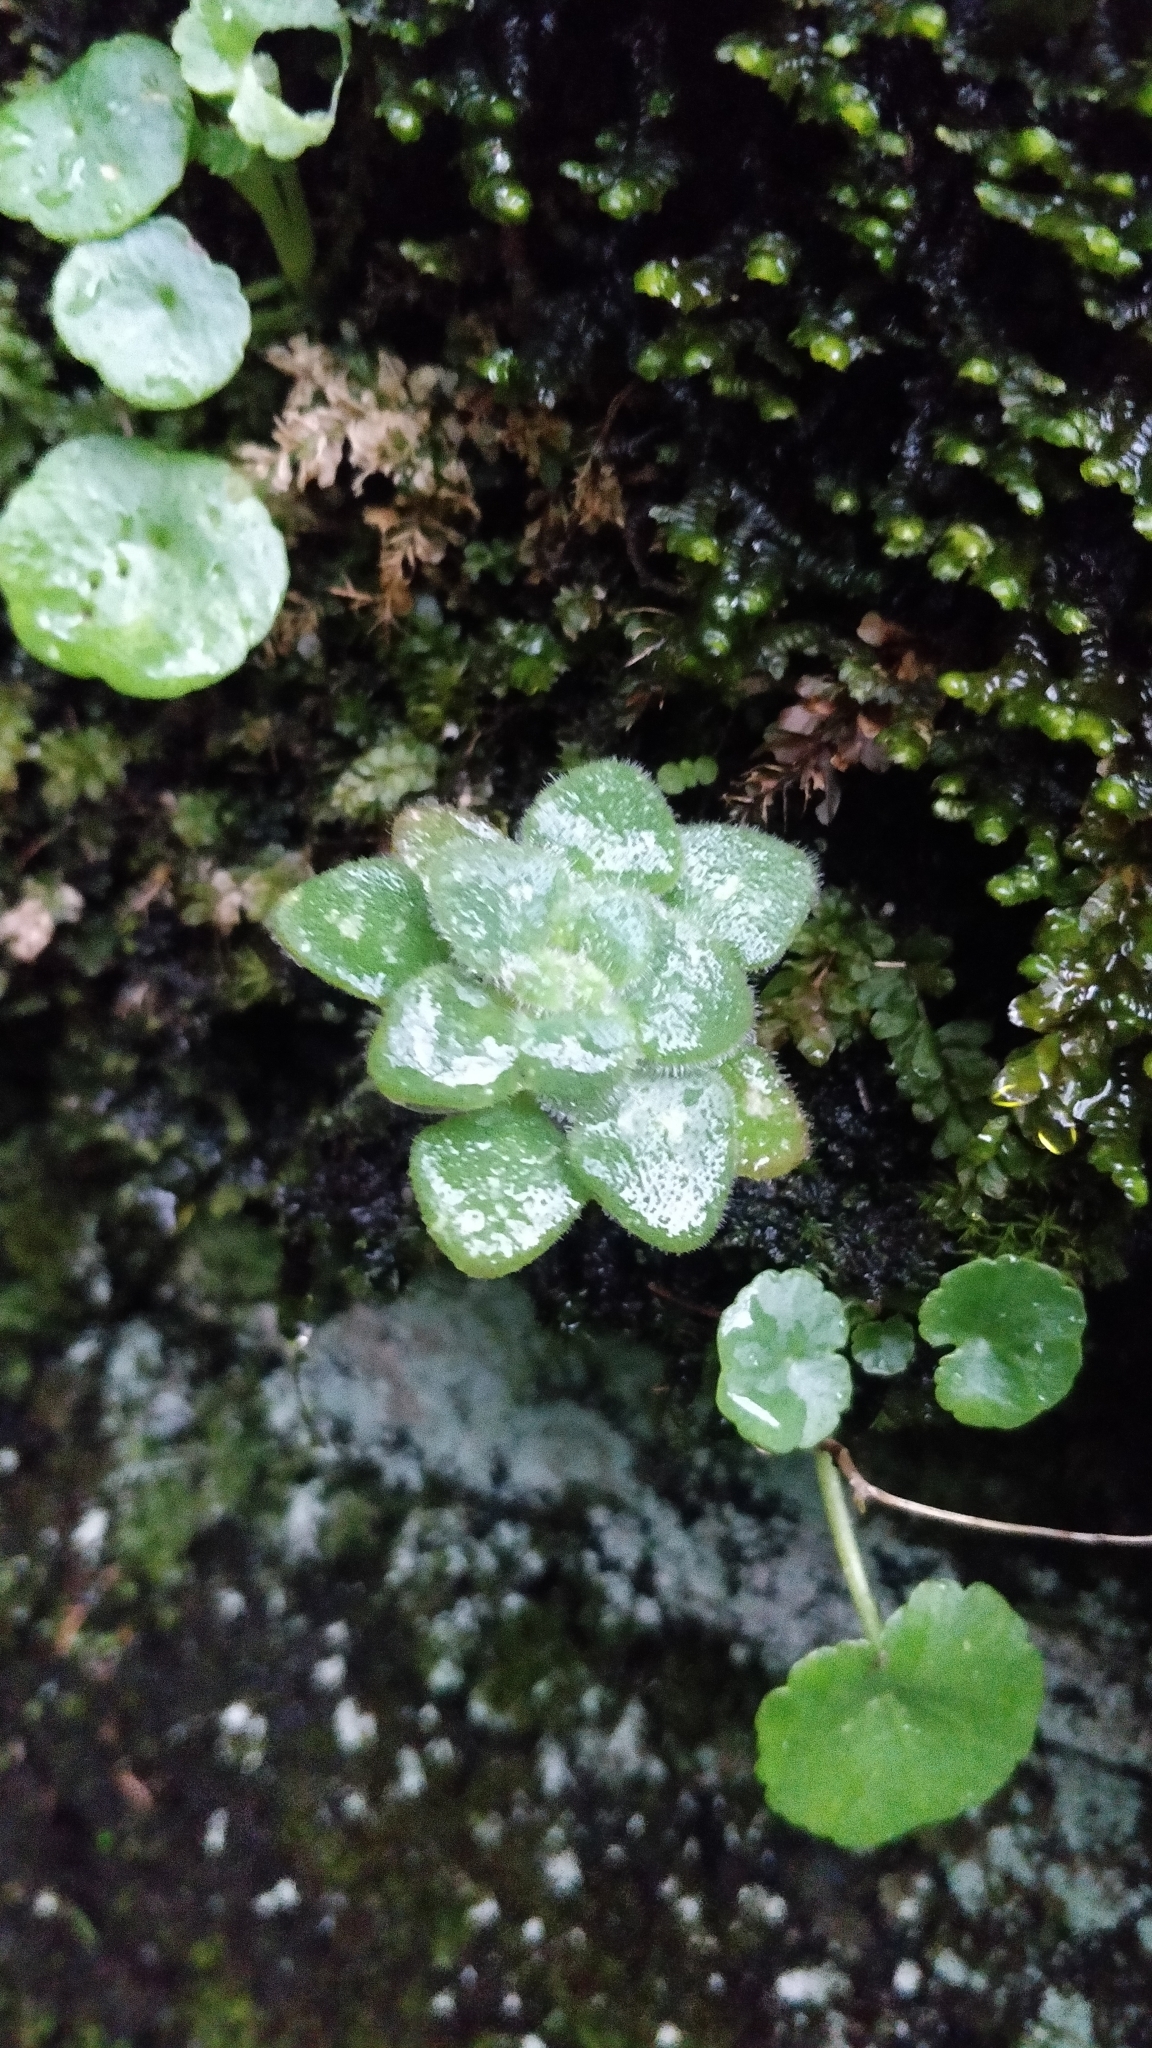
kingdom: Plantae
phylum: Tracheophyta
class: Magnoliopsida
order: Saxifragales
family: Crassulaceae
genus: Aichryson
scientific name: Aichryson villosum
